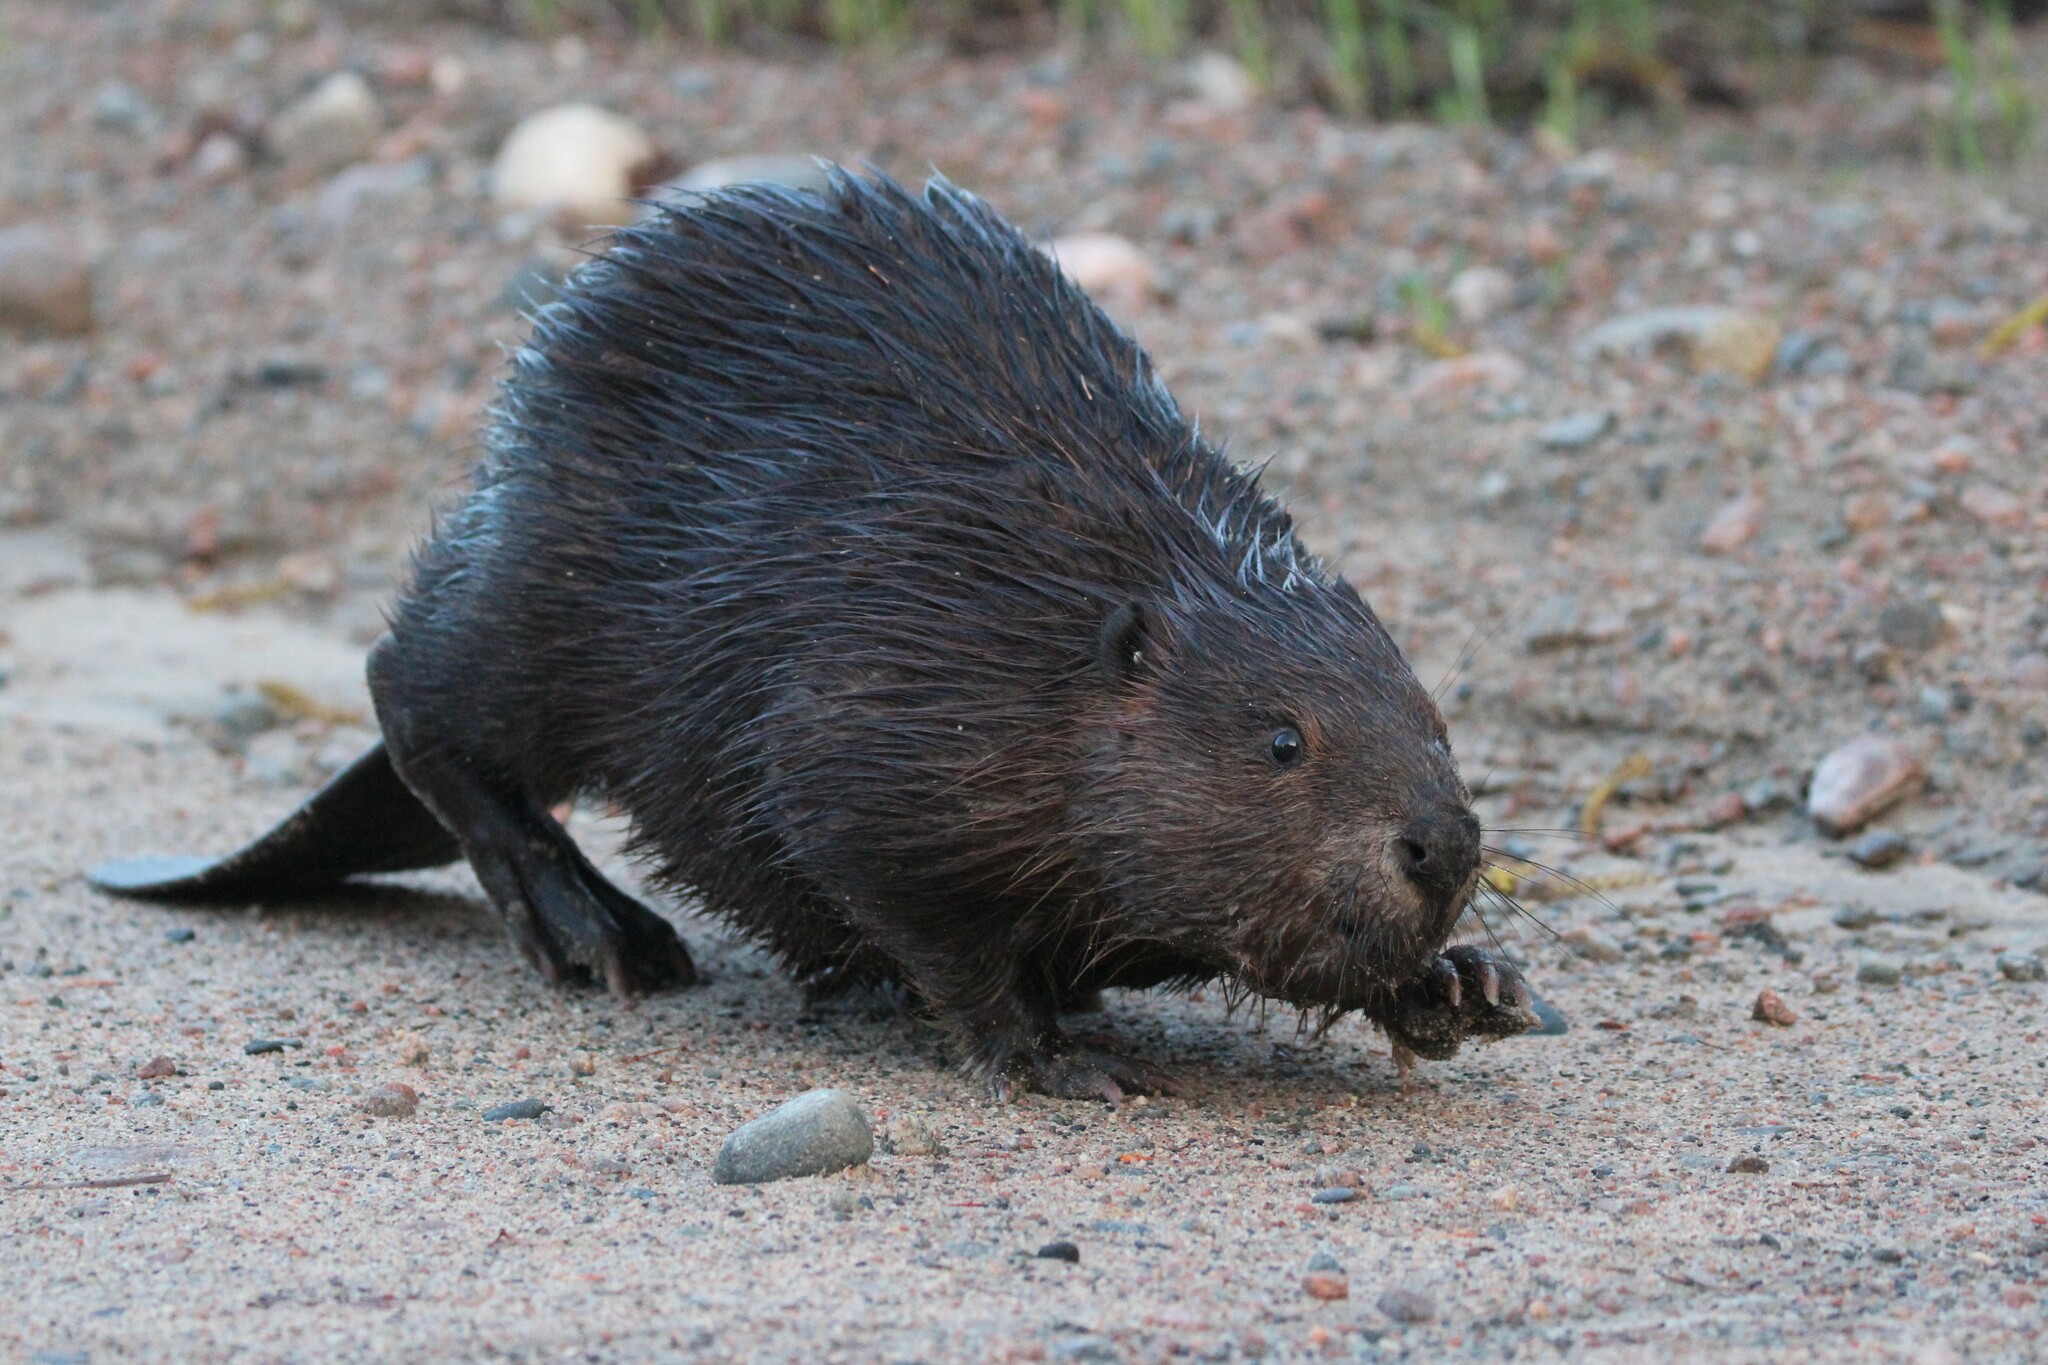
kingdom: Animalia
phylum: Chordata
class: Mammalia
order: Rodentia
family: Castoridae
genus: Castor
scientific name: Castor canadensis
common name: American beaver
